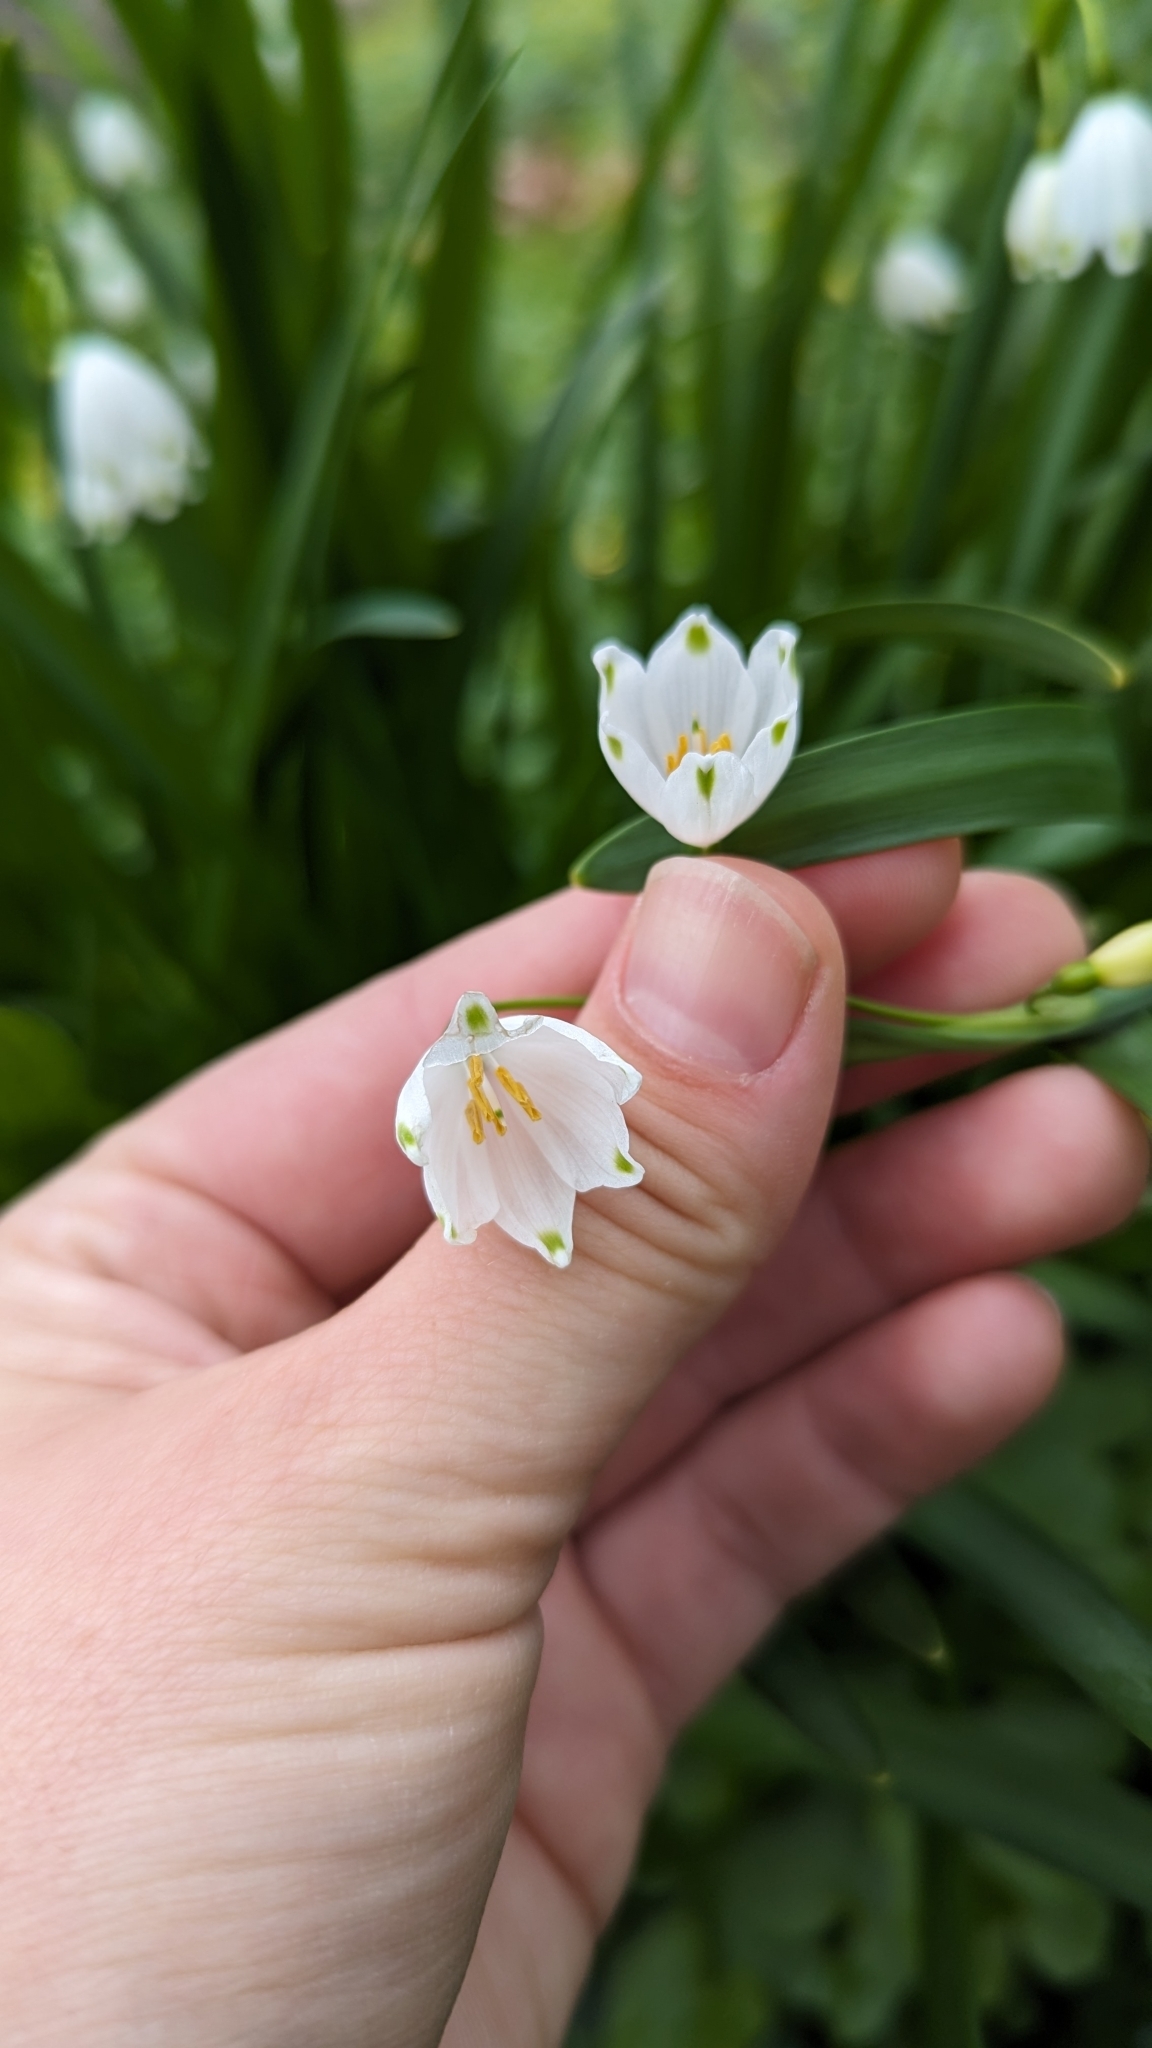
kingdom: Plantae
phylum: Tracheophyta
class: Liliopsida
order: Asparagales
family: Amaryllidaceae
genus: Leucojum
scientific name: Leucojum aestivum
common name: Summer snowflake
